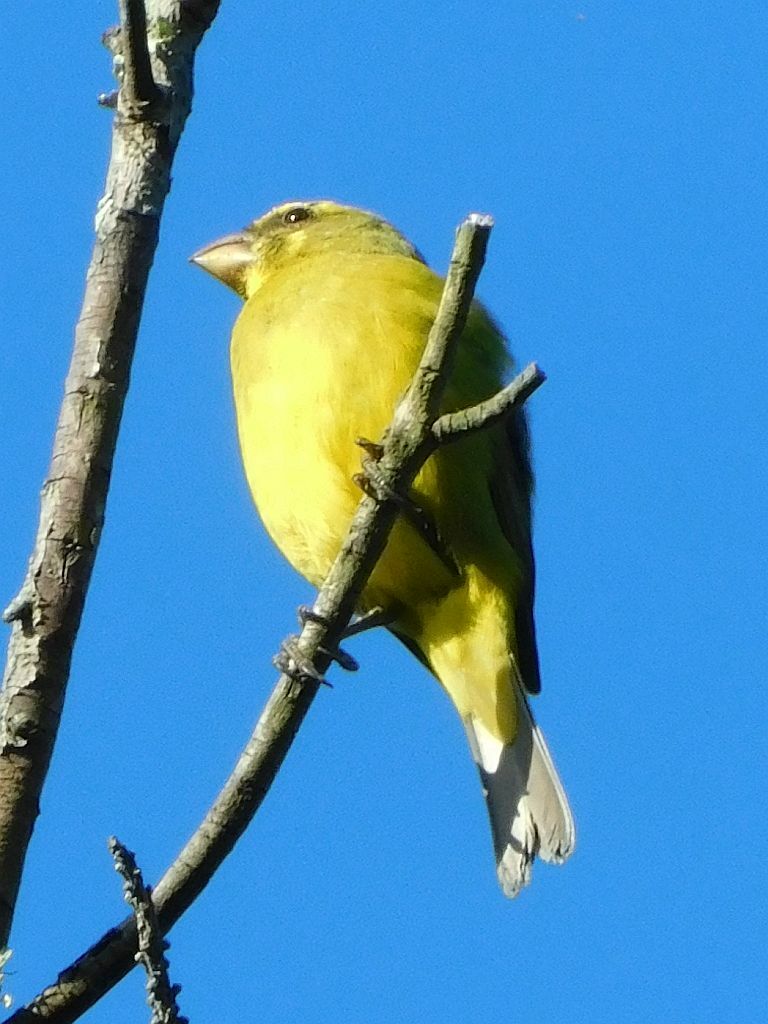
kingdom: Animalia
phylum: Chordata
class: Aves
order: Passeriformes
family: Fringillidae
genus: Crithagra
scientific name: Crithagra sulphurata
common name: Brimstone canary
